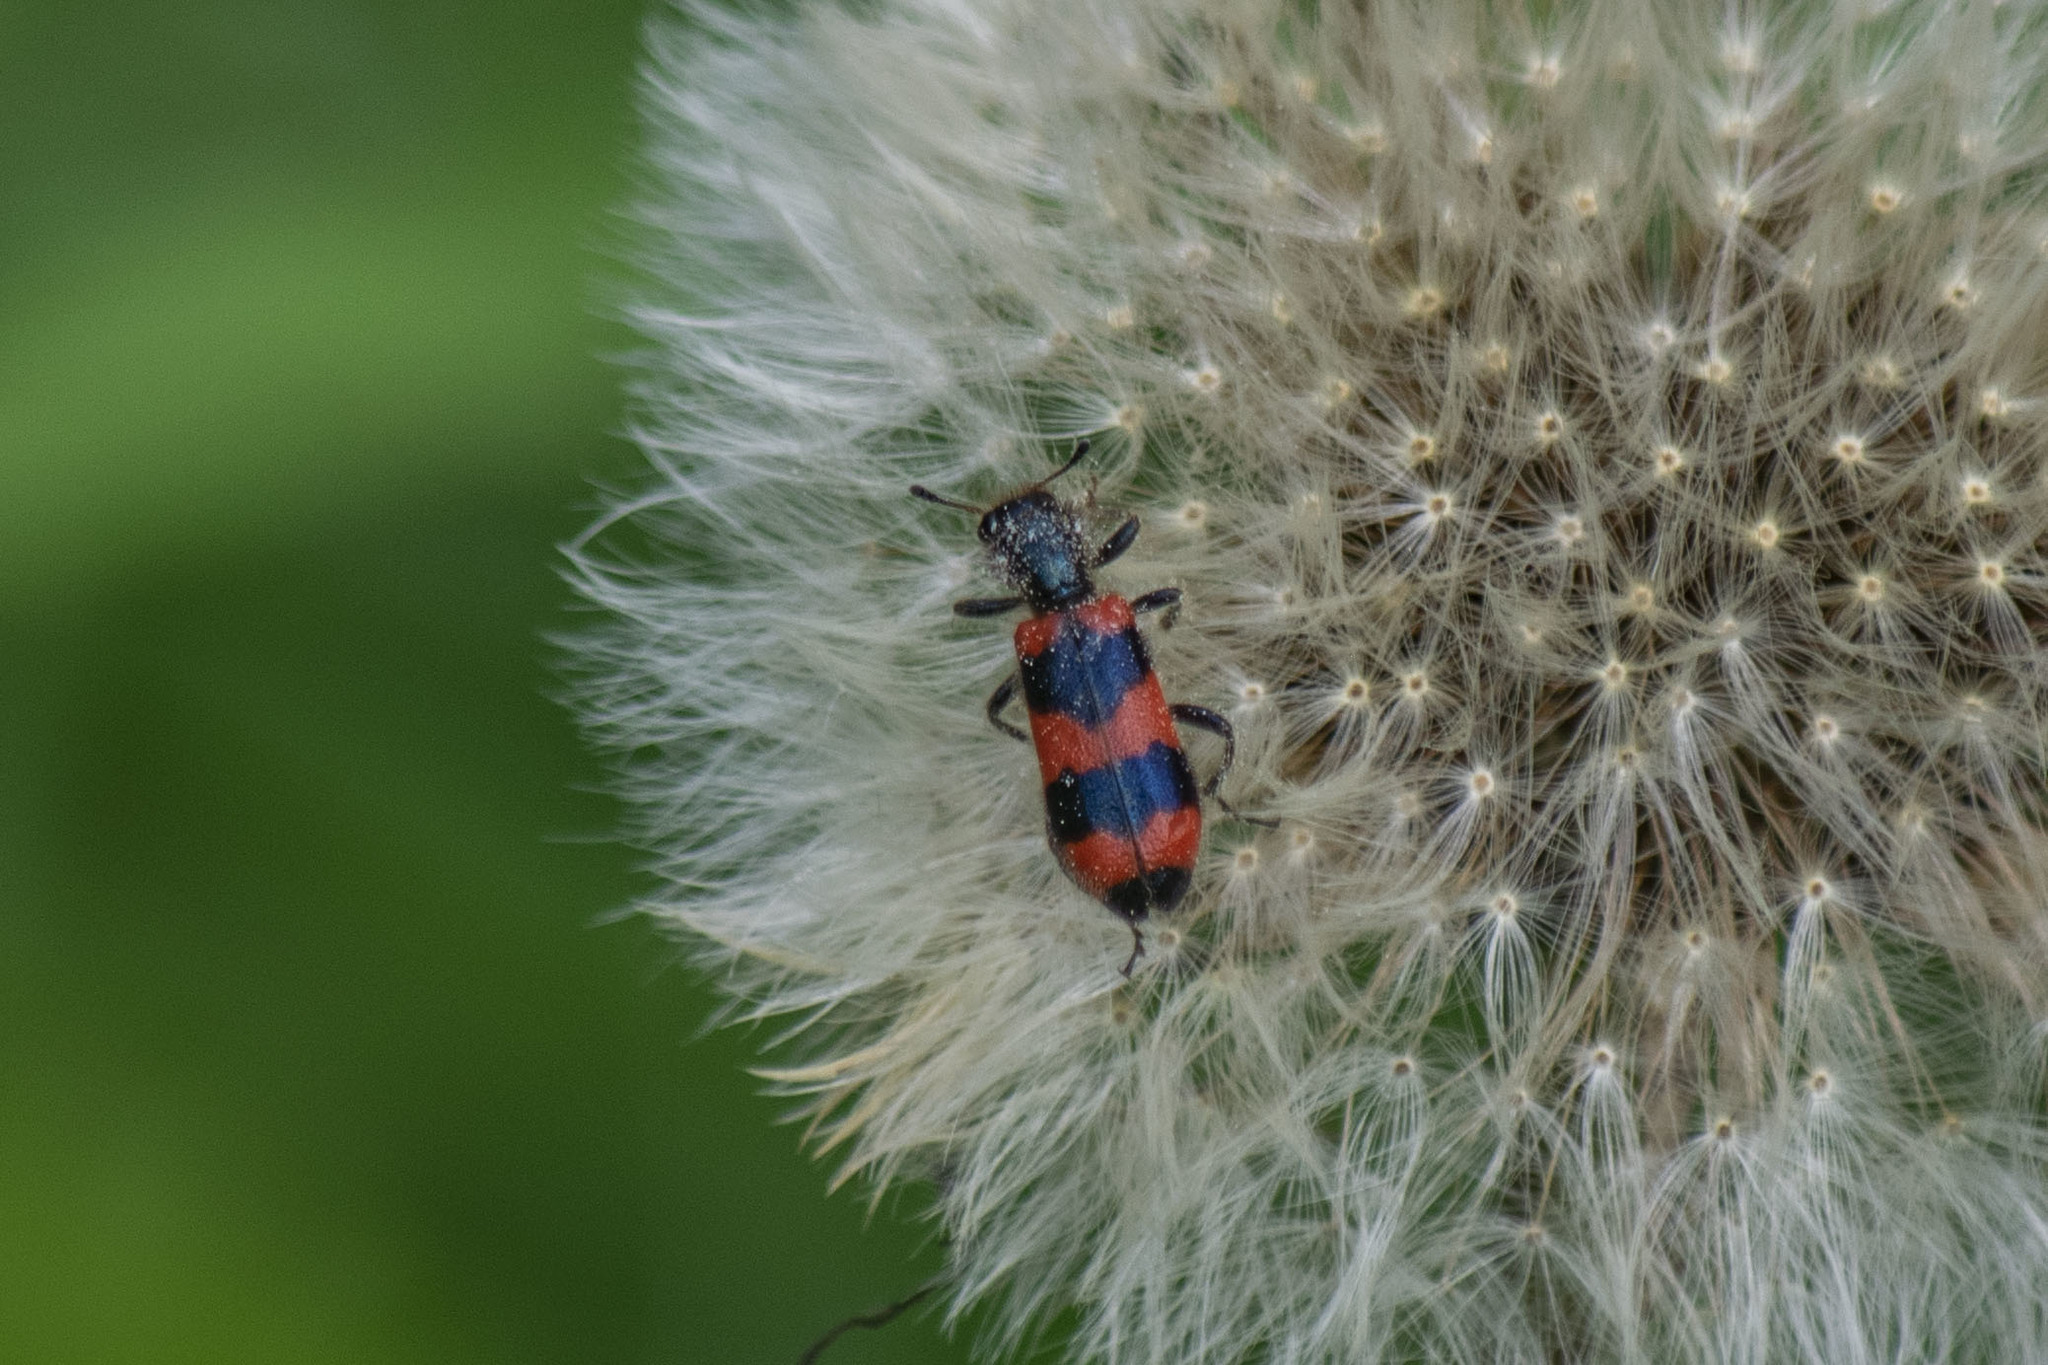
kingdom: Animalia
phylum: Arthropoda
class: Insecta
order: Coleoptera
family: Cleridae
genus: Trichodes
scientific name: Trichodes apiarius
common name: Bee-eating beetle
